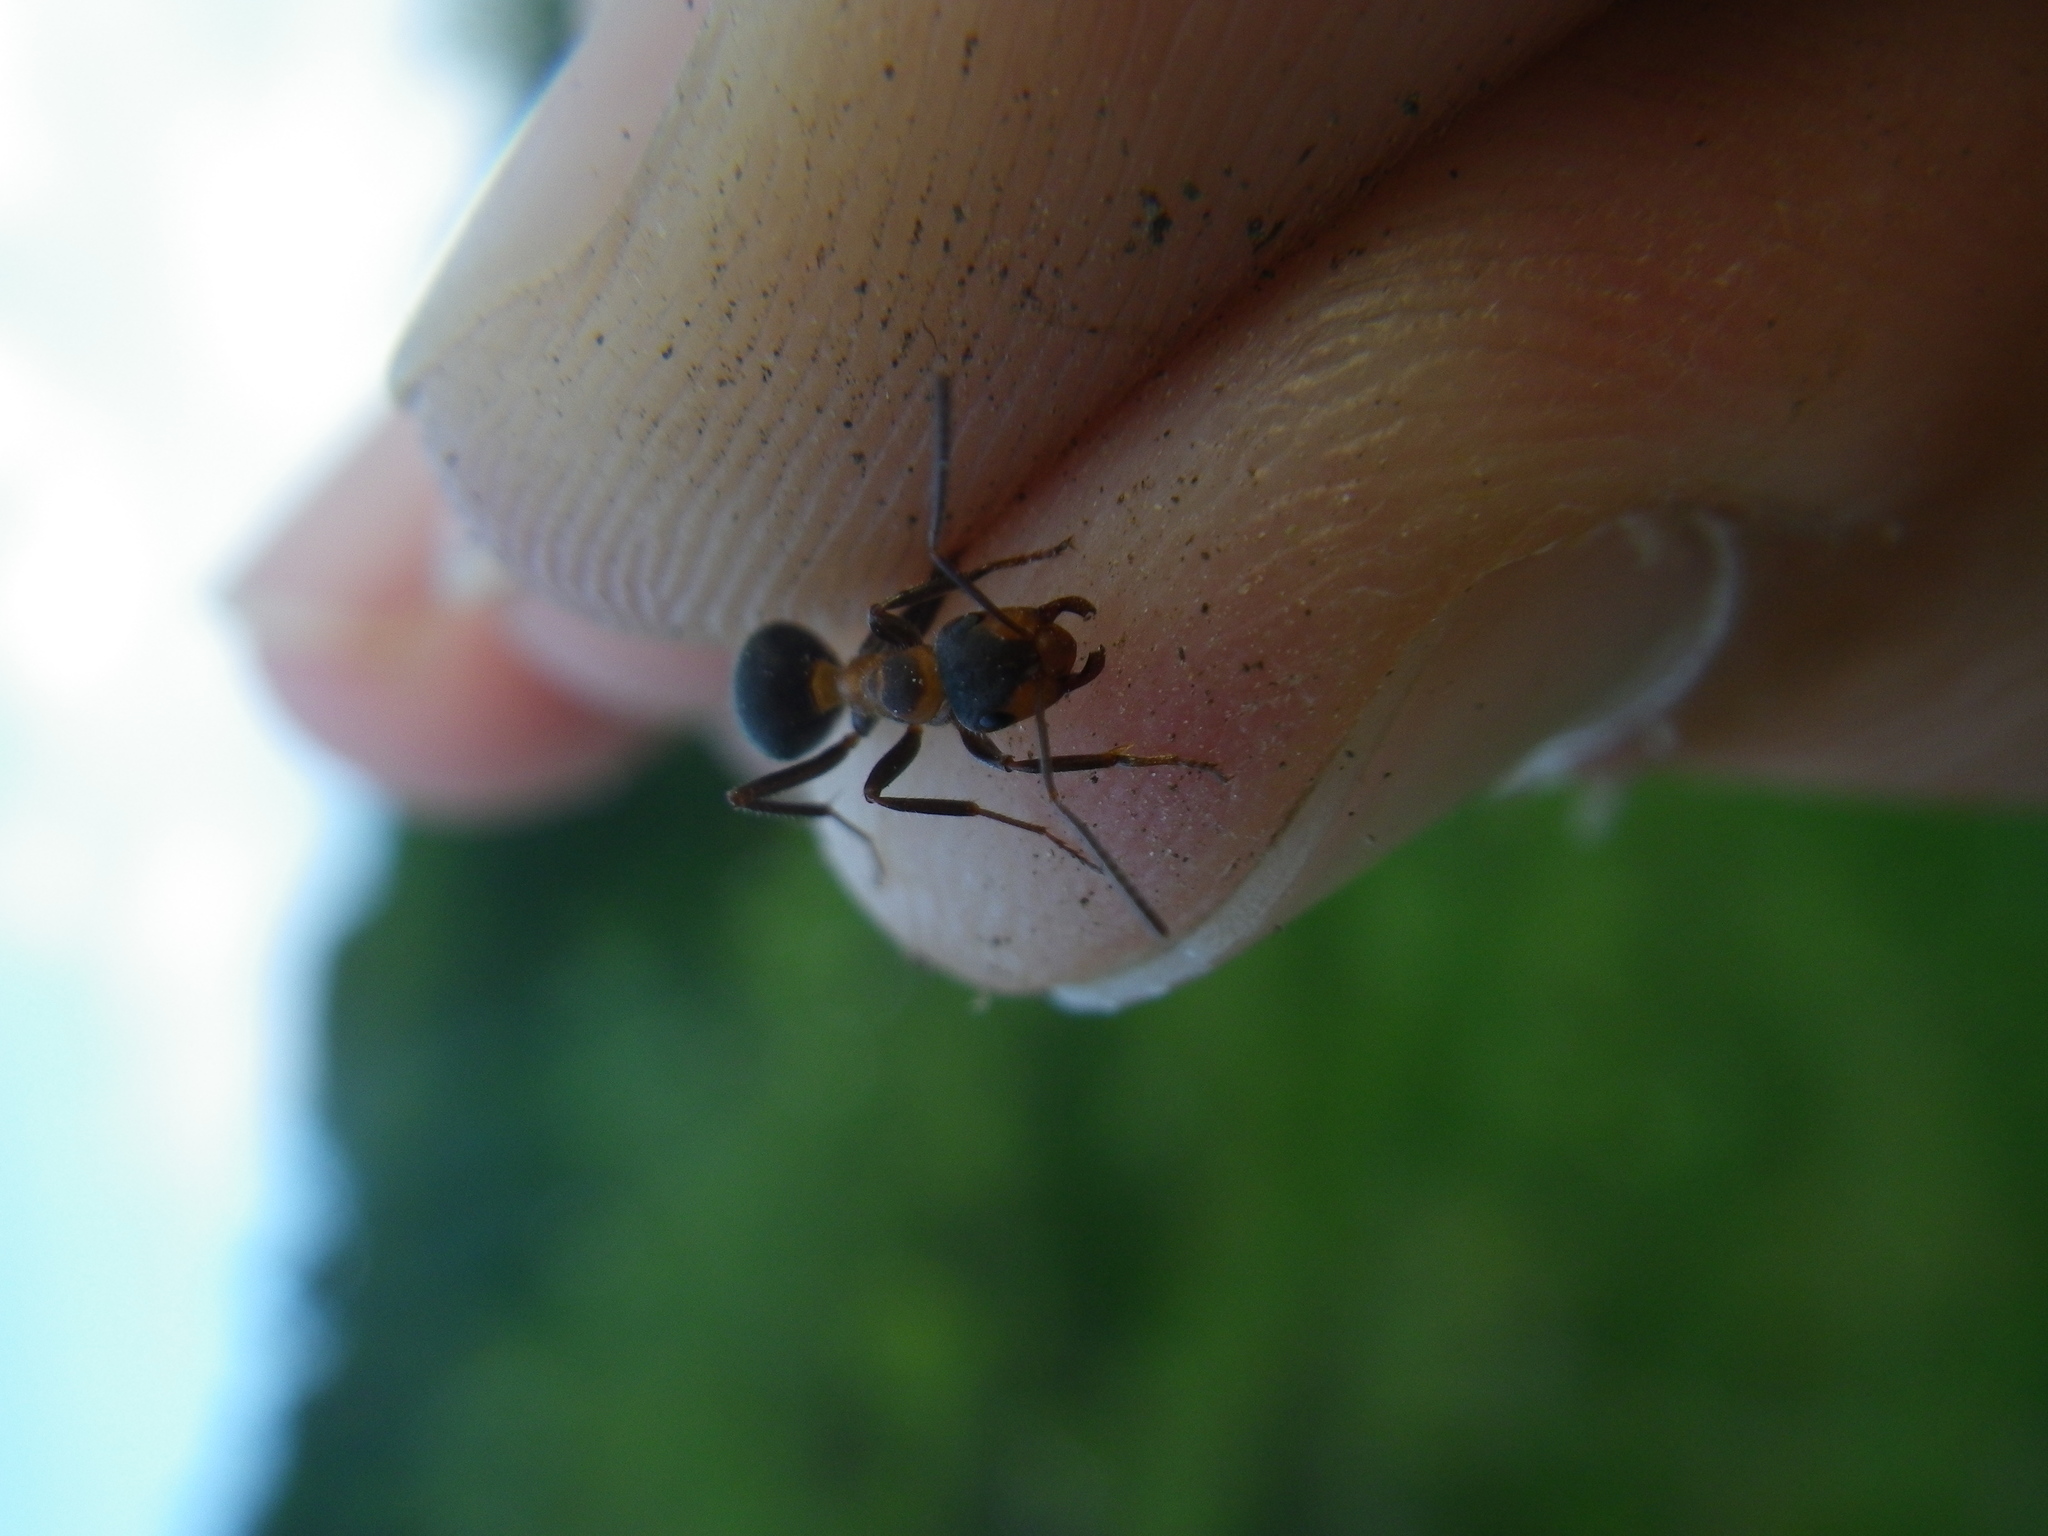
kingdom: Animalia
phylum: Arthropoda
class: Insecta
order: Hymenoptera
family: Formicidae
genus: Formica
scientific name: Formica pratensis
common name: European red wood ant
